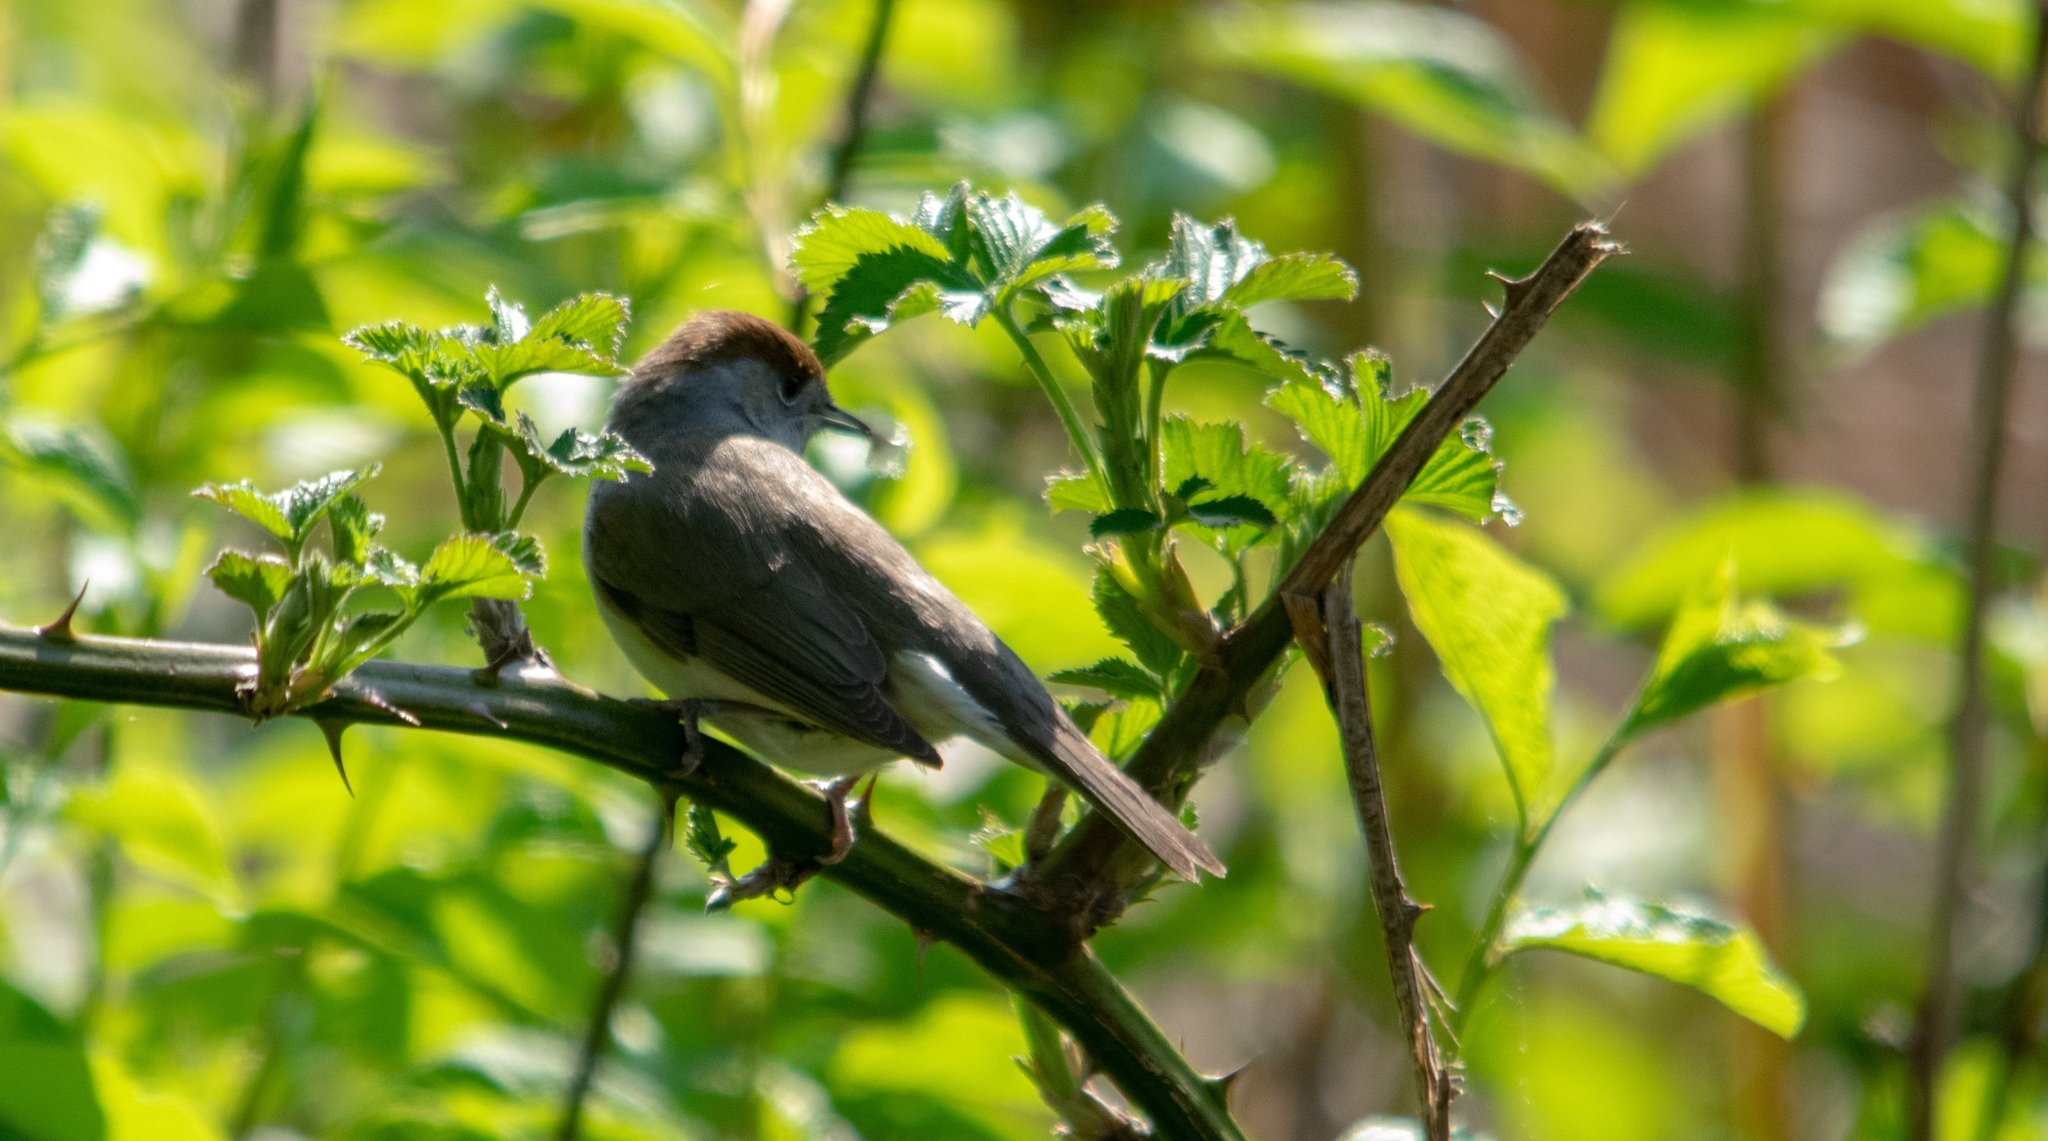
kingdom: Animalia
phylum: Chordata
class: Aves
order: Passeriformes
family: Sylviidae
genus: Sylvia
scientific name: Sylvia atricapilla
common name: Eurasian blackcap
